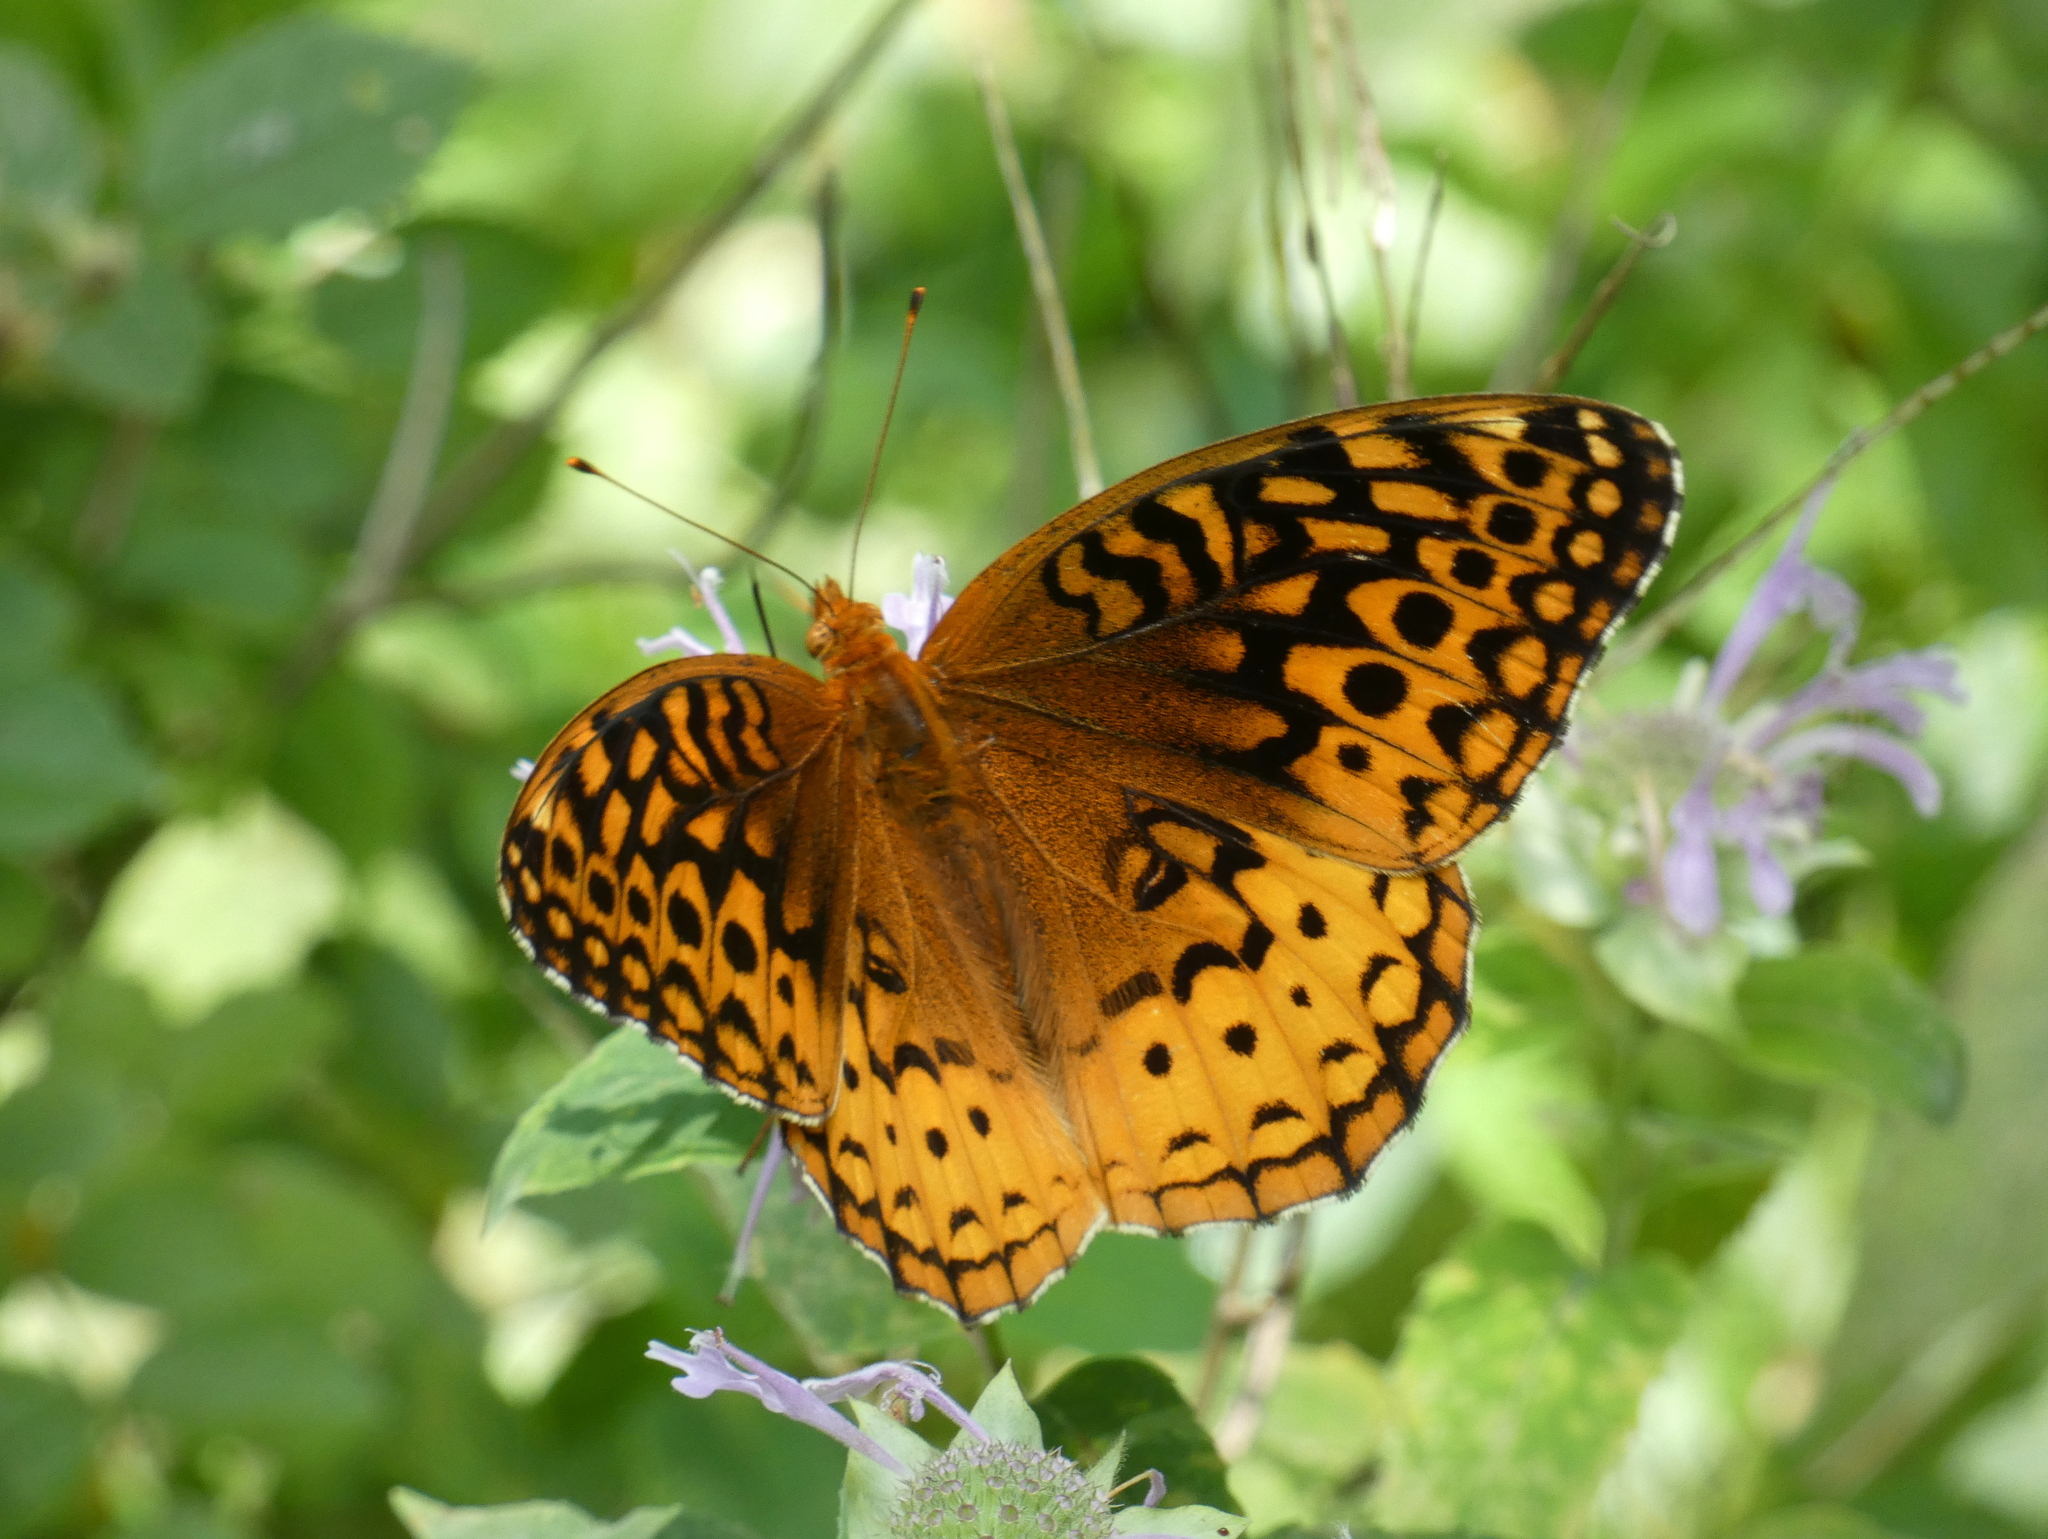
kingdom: Animalia
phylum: Arthropoda
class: Insecta
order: Lepidoptera
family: Nymphalidae
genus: Speyeria
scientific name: Speyeria cybele
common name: Great spangled fritillary
